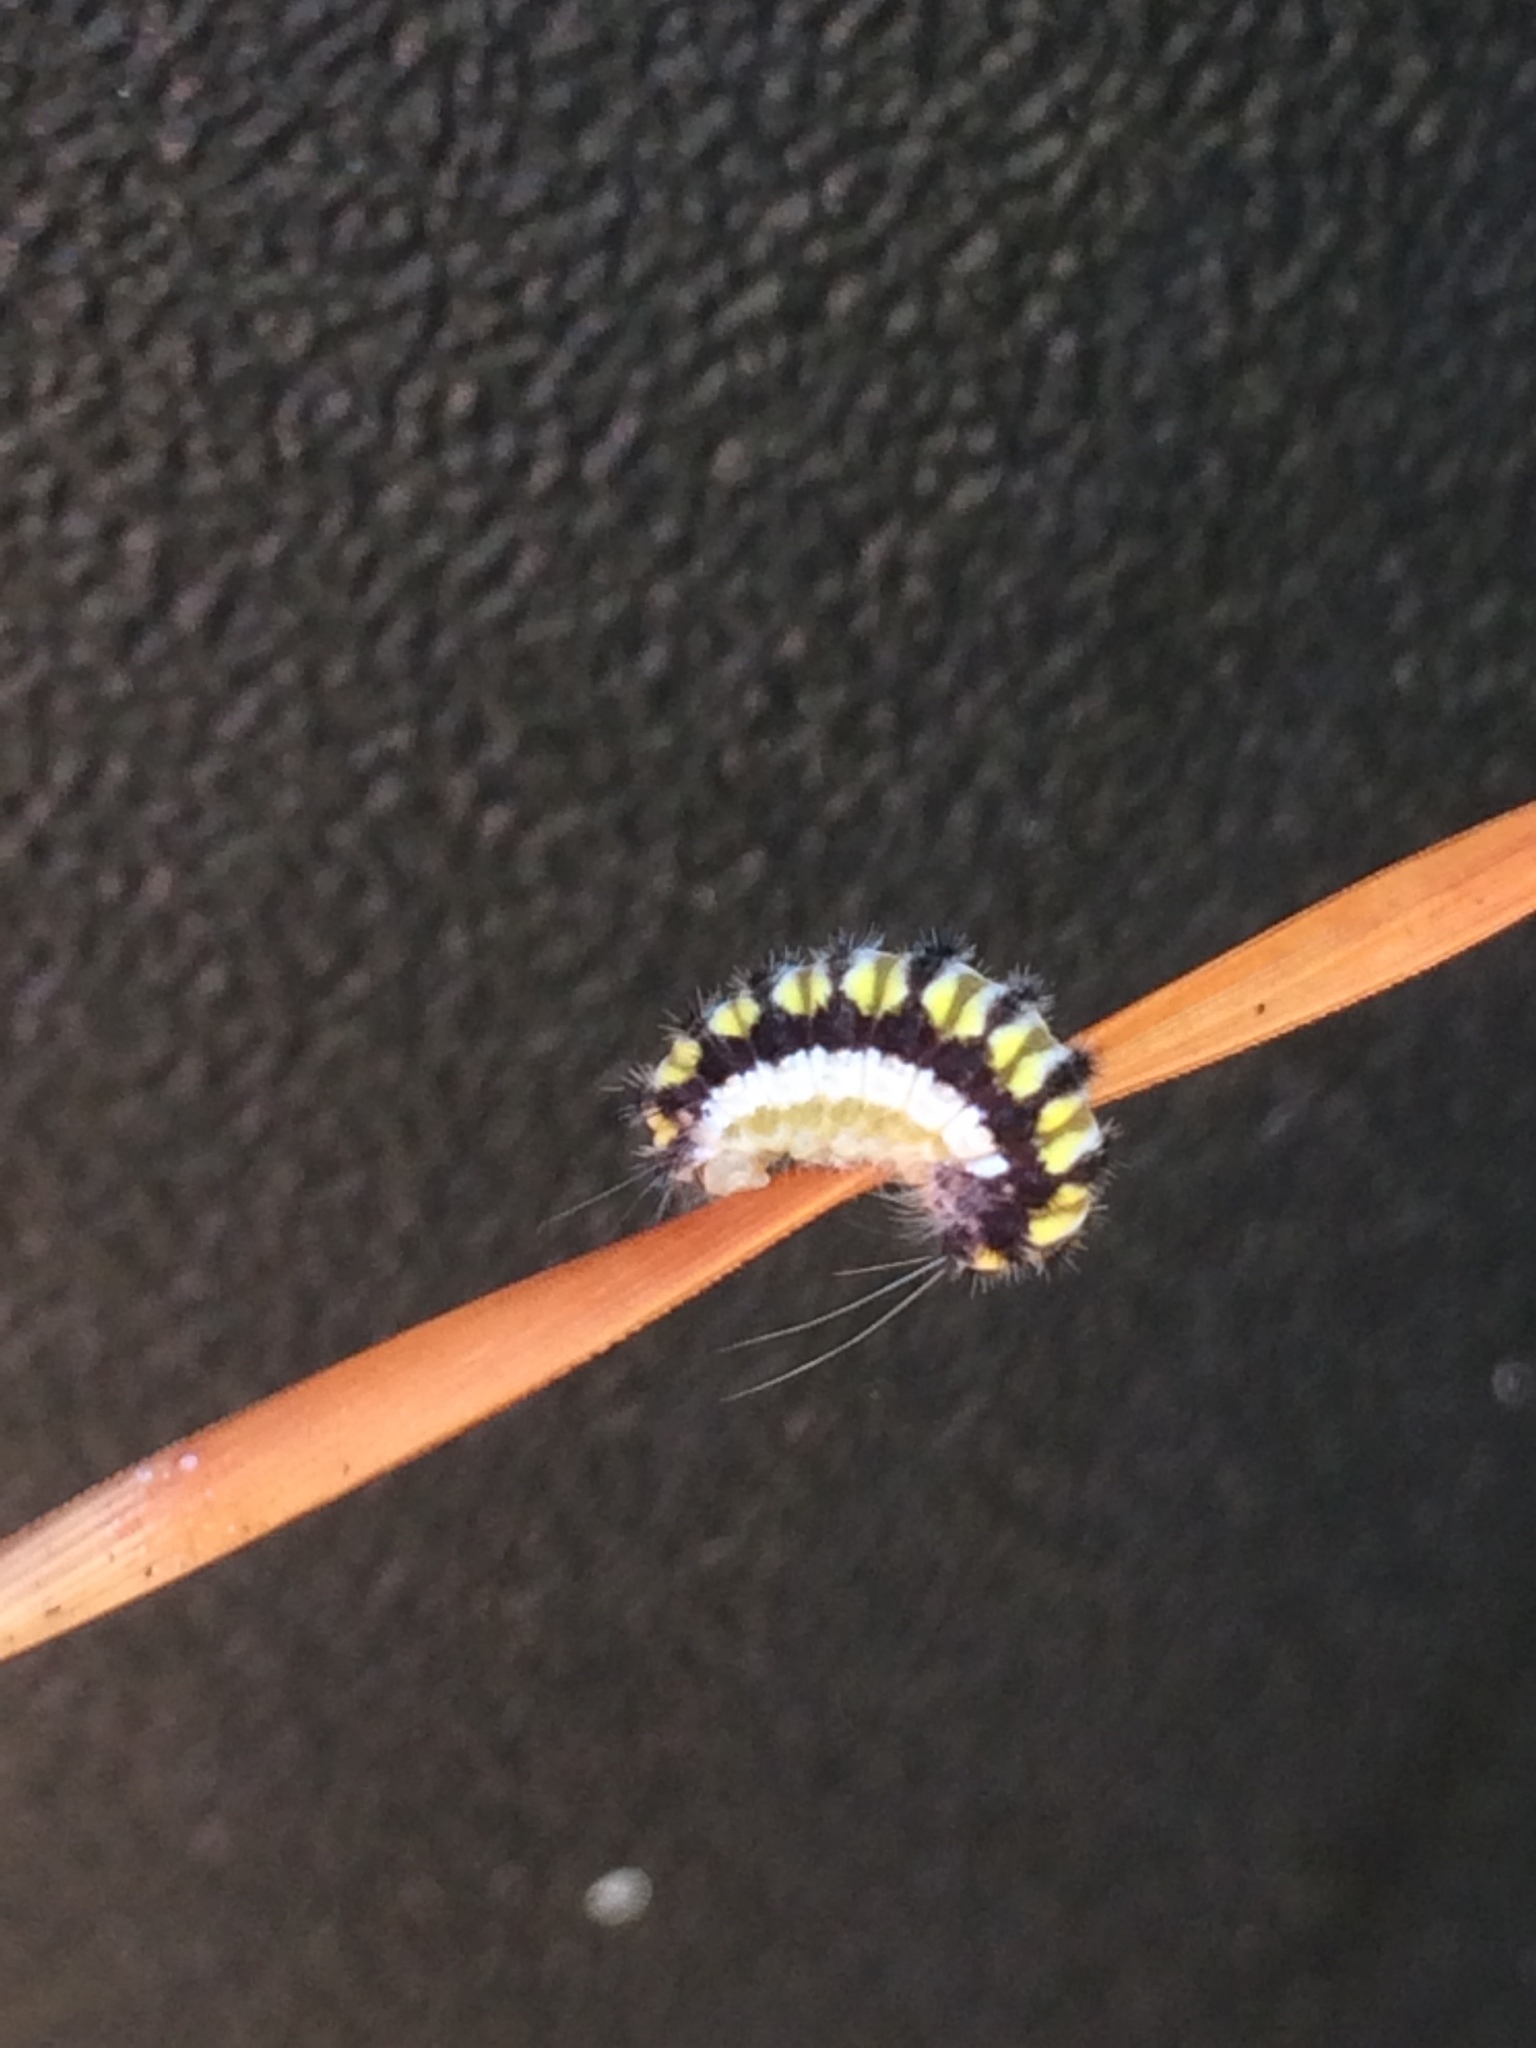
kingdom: Animalia
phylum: Arthropoda
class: Insecta
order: Lepidoptera
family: Zygaenidae
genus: Harrisina
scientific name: Harrisina americana
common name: Grapeleaf skeletonizer moth
